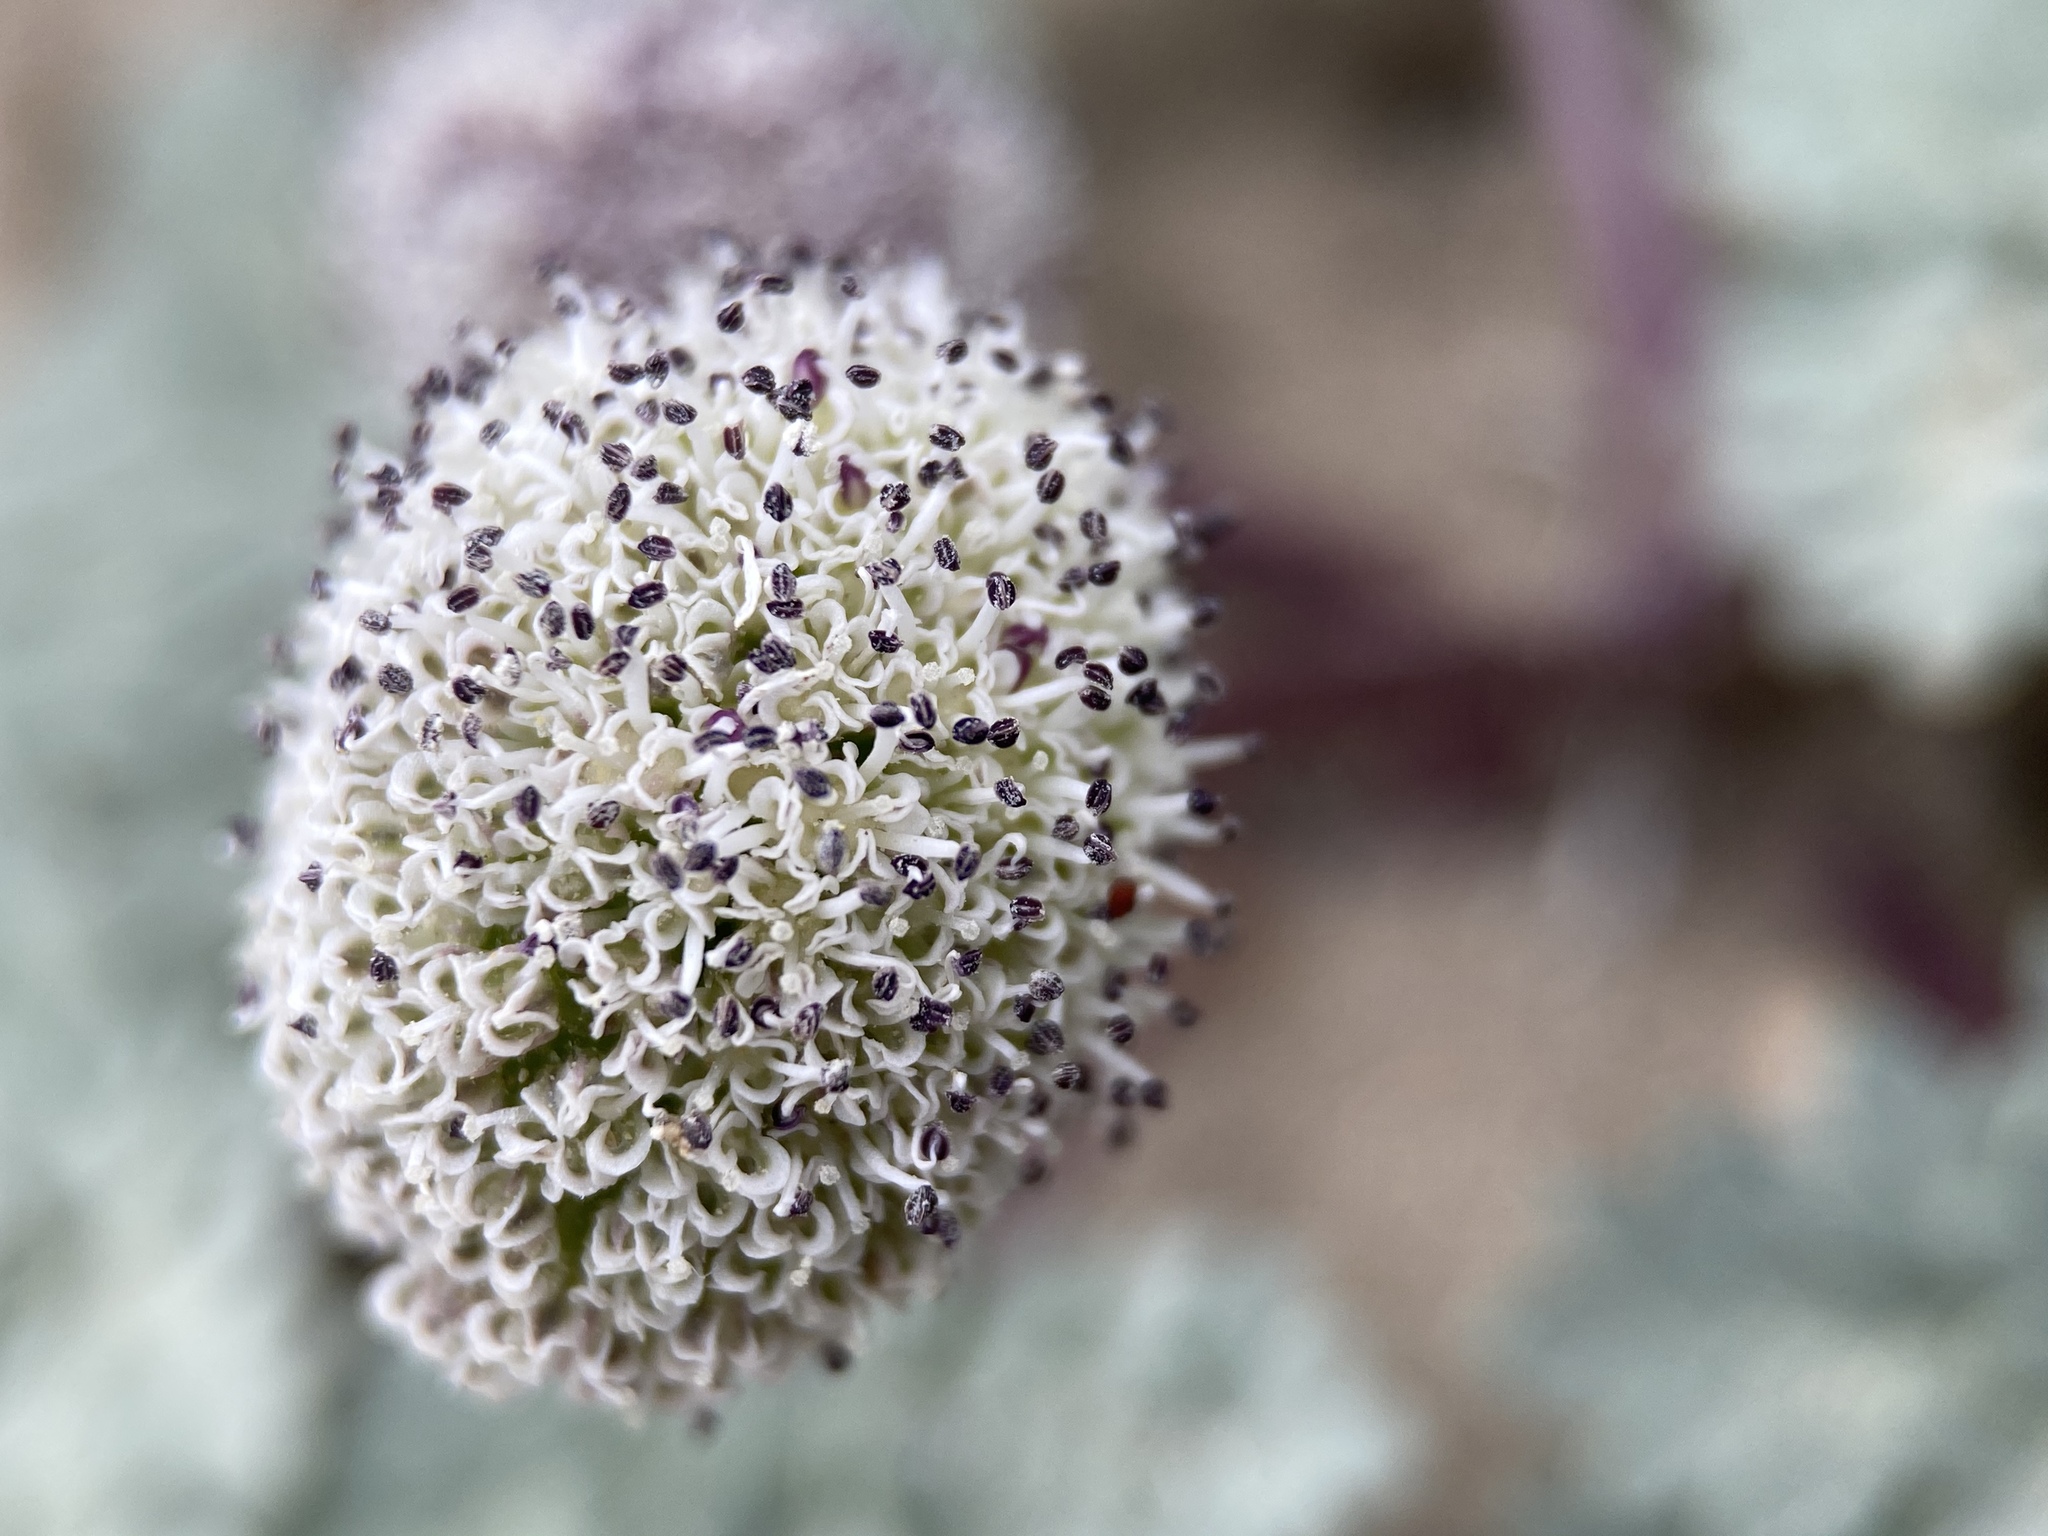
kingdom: Plantae
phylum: Tracheophyta
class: Magnoliopsida
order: Apiales
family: Apiaceae
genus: Cymopterus
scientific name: Cymopterus globosus
